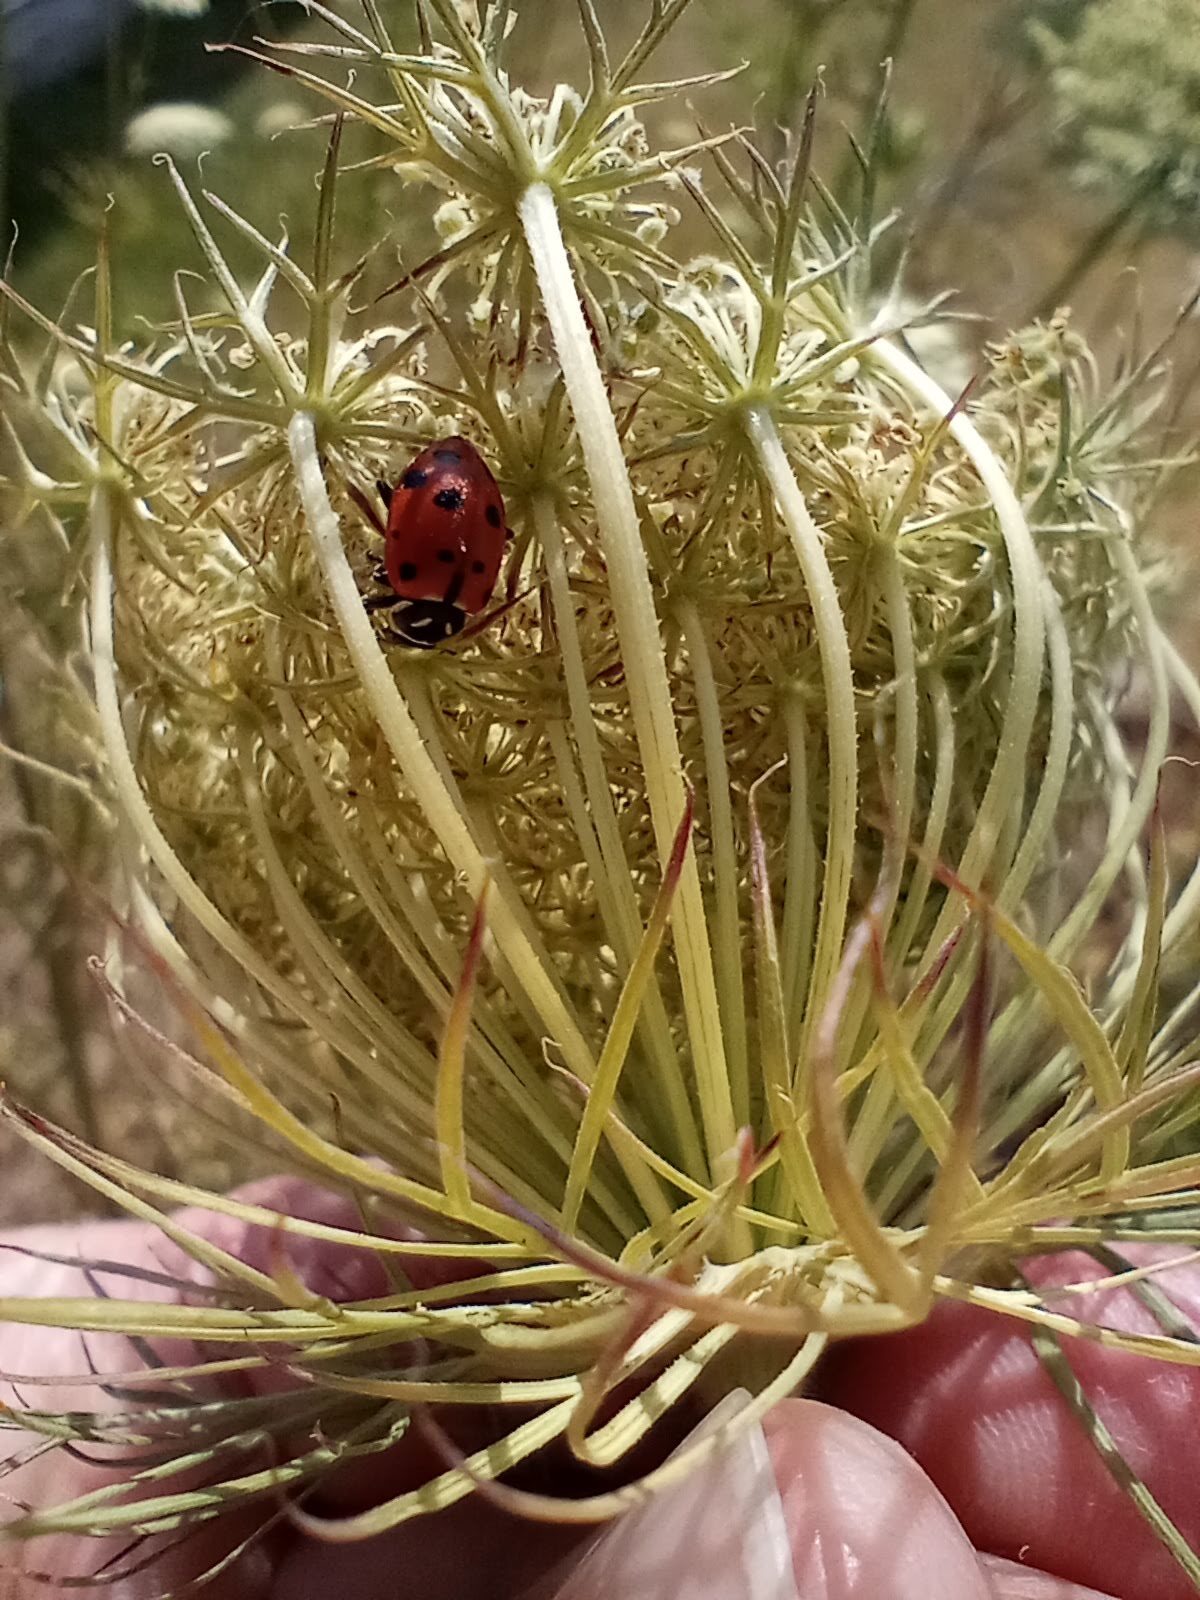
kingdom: Animalia
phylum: Arthropoda
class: Insecta
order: Coleoptera
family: Coccinellidae
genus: Hippodamia
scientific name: Hippodamia convergens
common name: Convergent lady beetle
